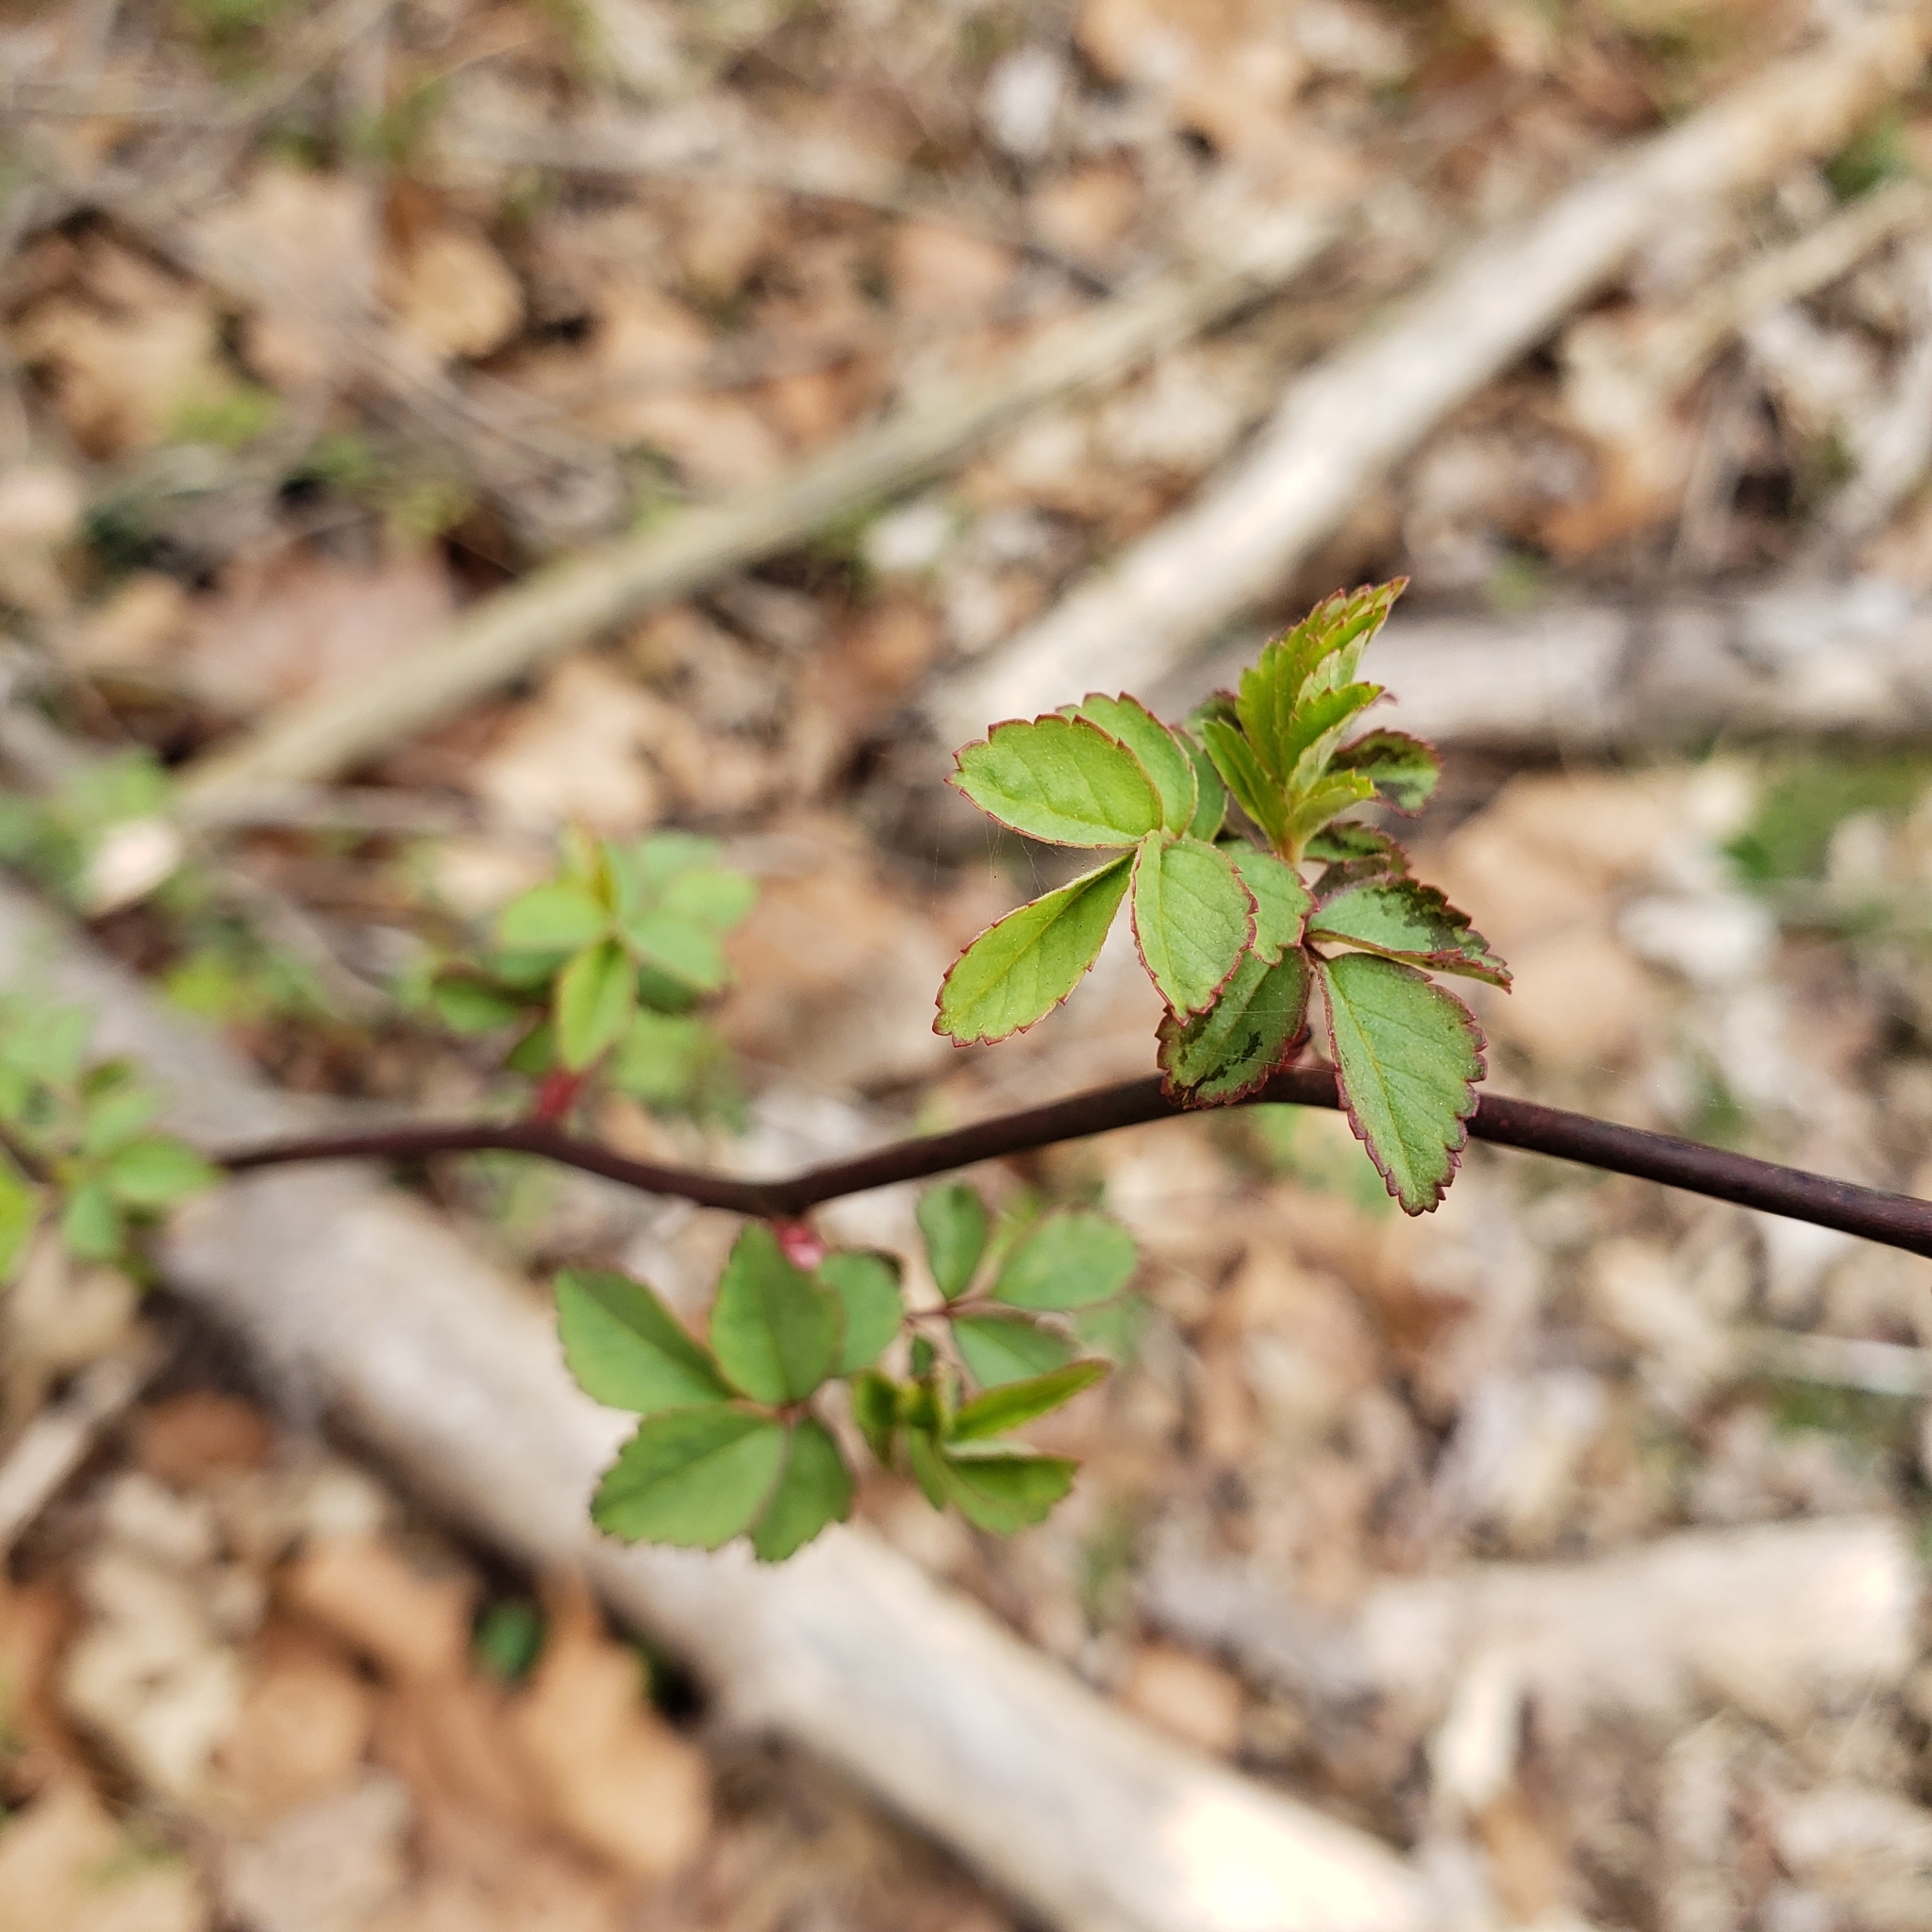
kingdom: Plantae
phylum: Tracheophyta
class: Magnoliopsida
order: Rosales
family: Rosaceae
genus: Rosa
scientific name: Rosa multiflora
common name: Multiflora rose
